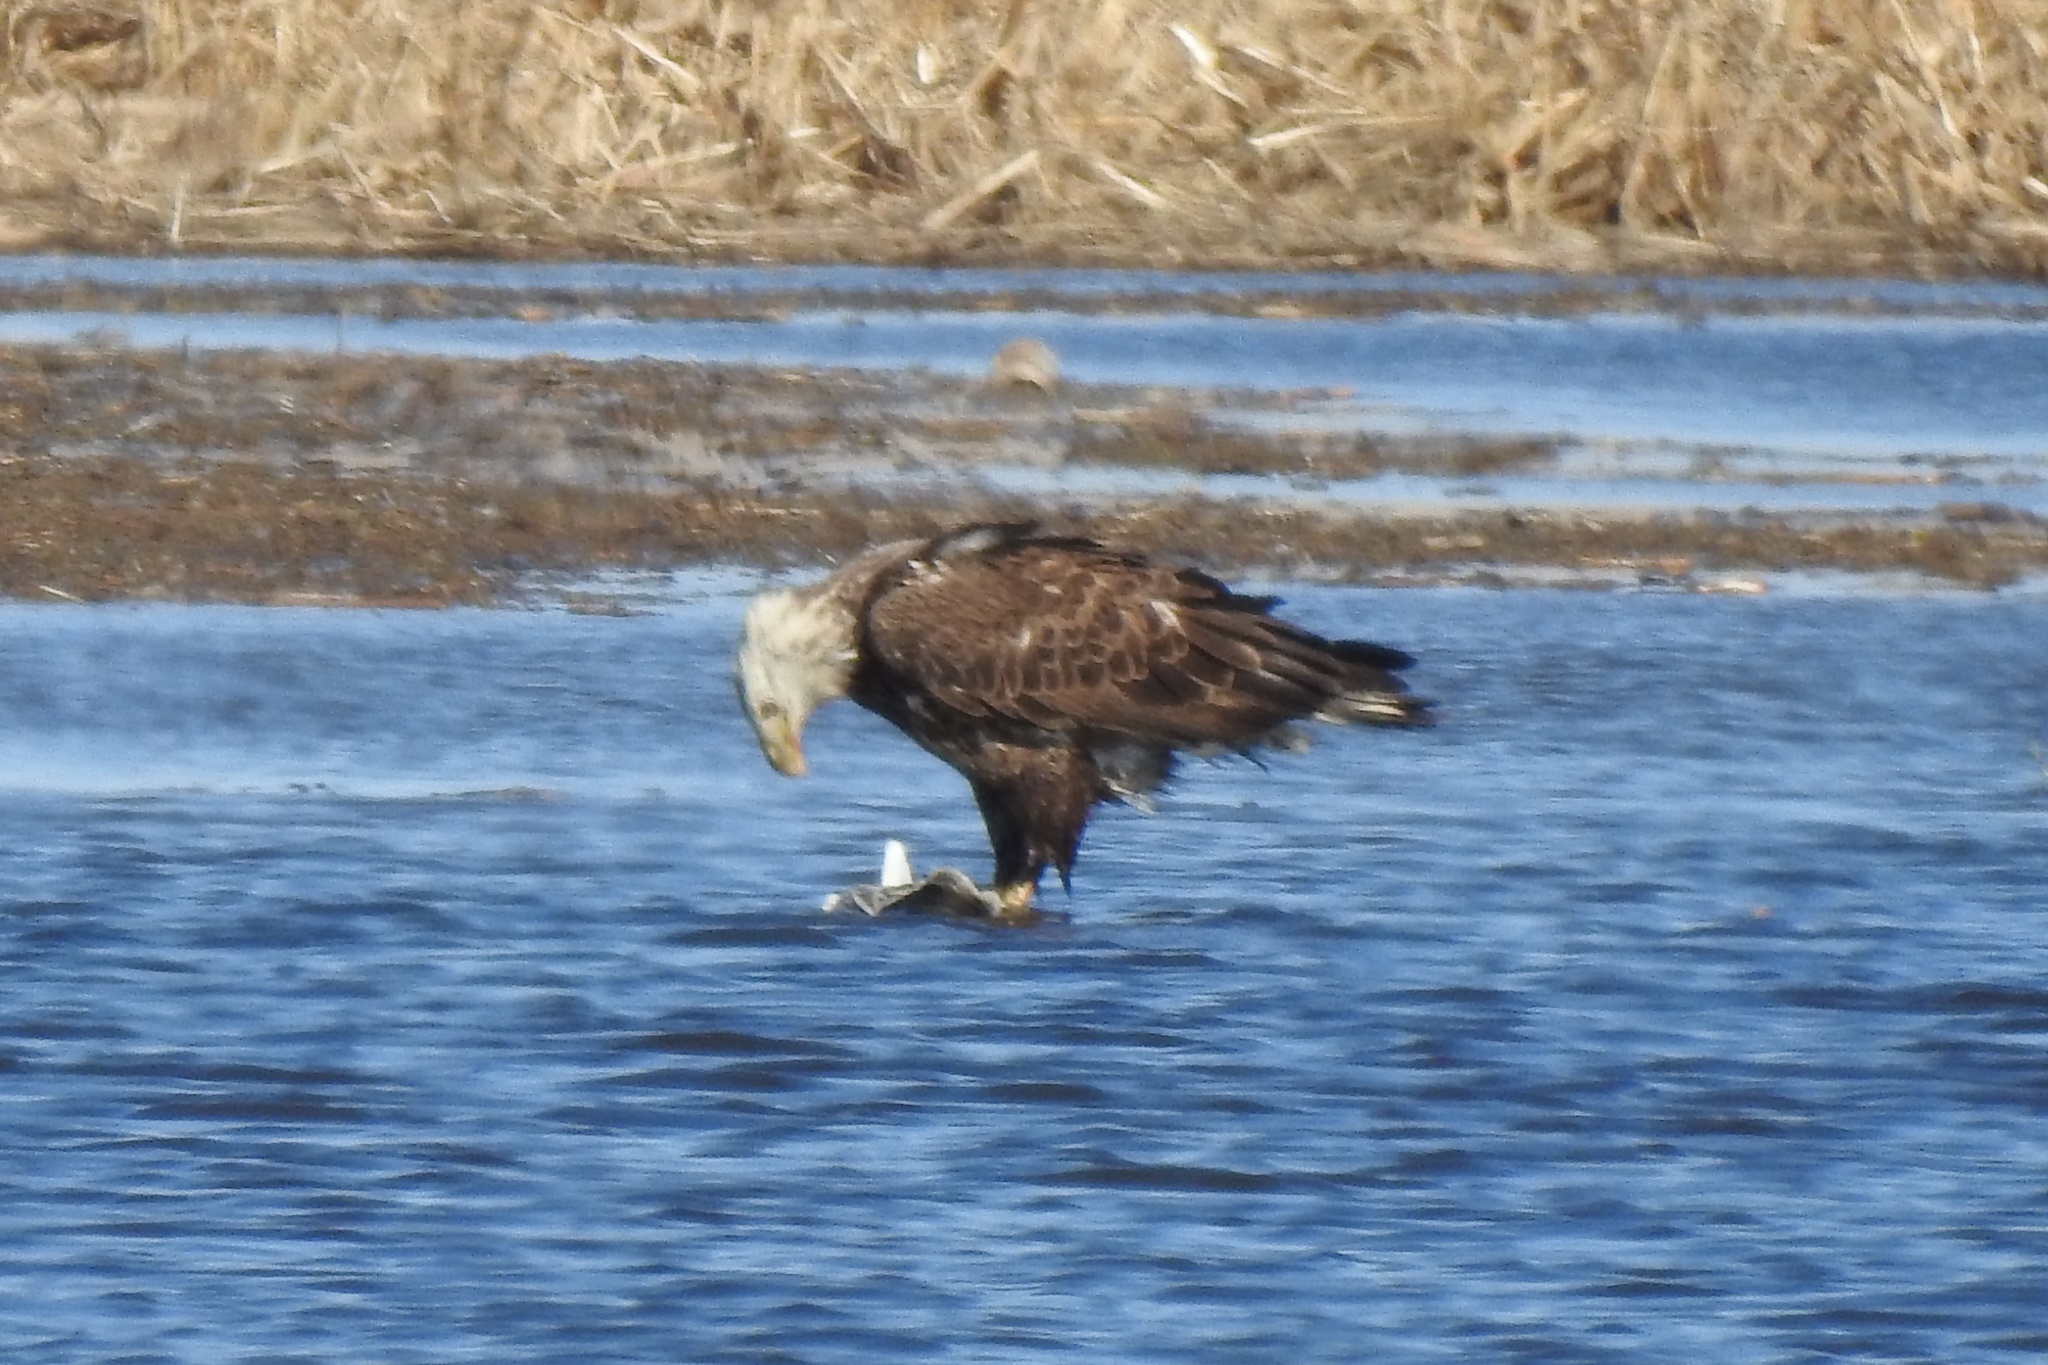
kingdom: Animalia
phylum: Chordata
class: Aves
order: Accipitriformes
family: Accipitridae
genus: Haliaeetus
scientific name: Haliaeetus leucocephalus
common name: Bald eagle
